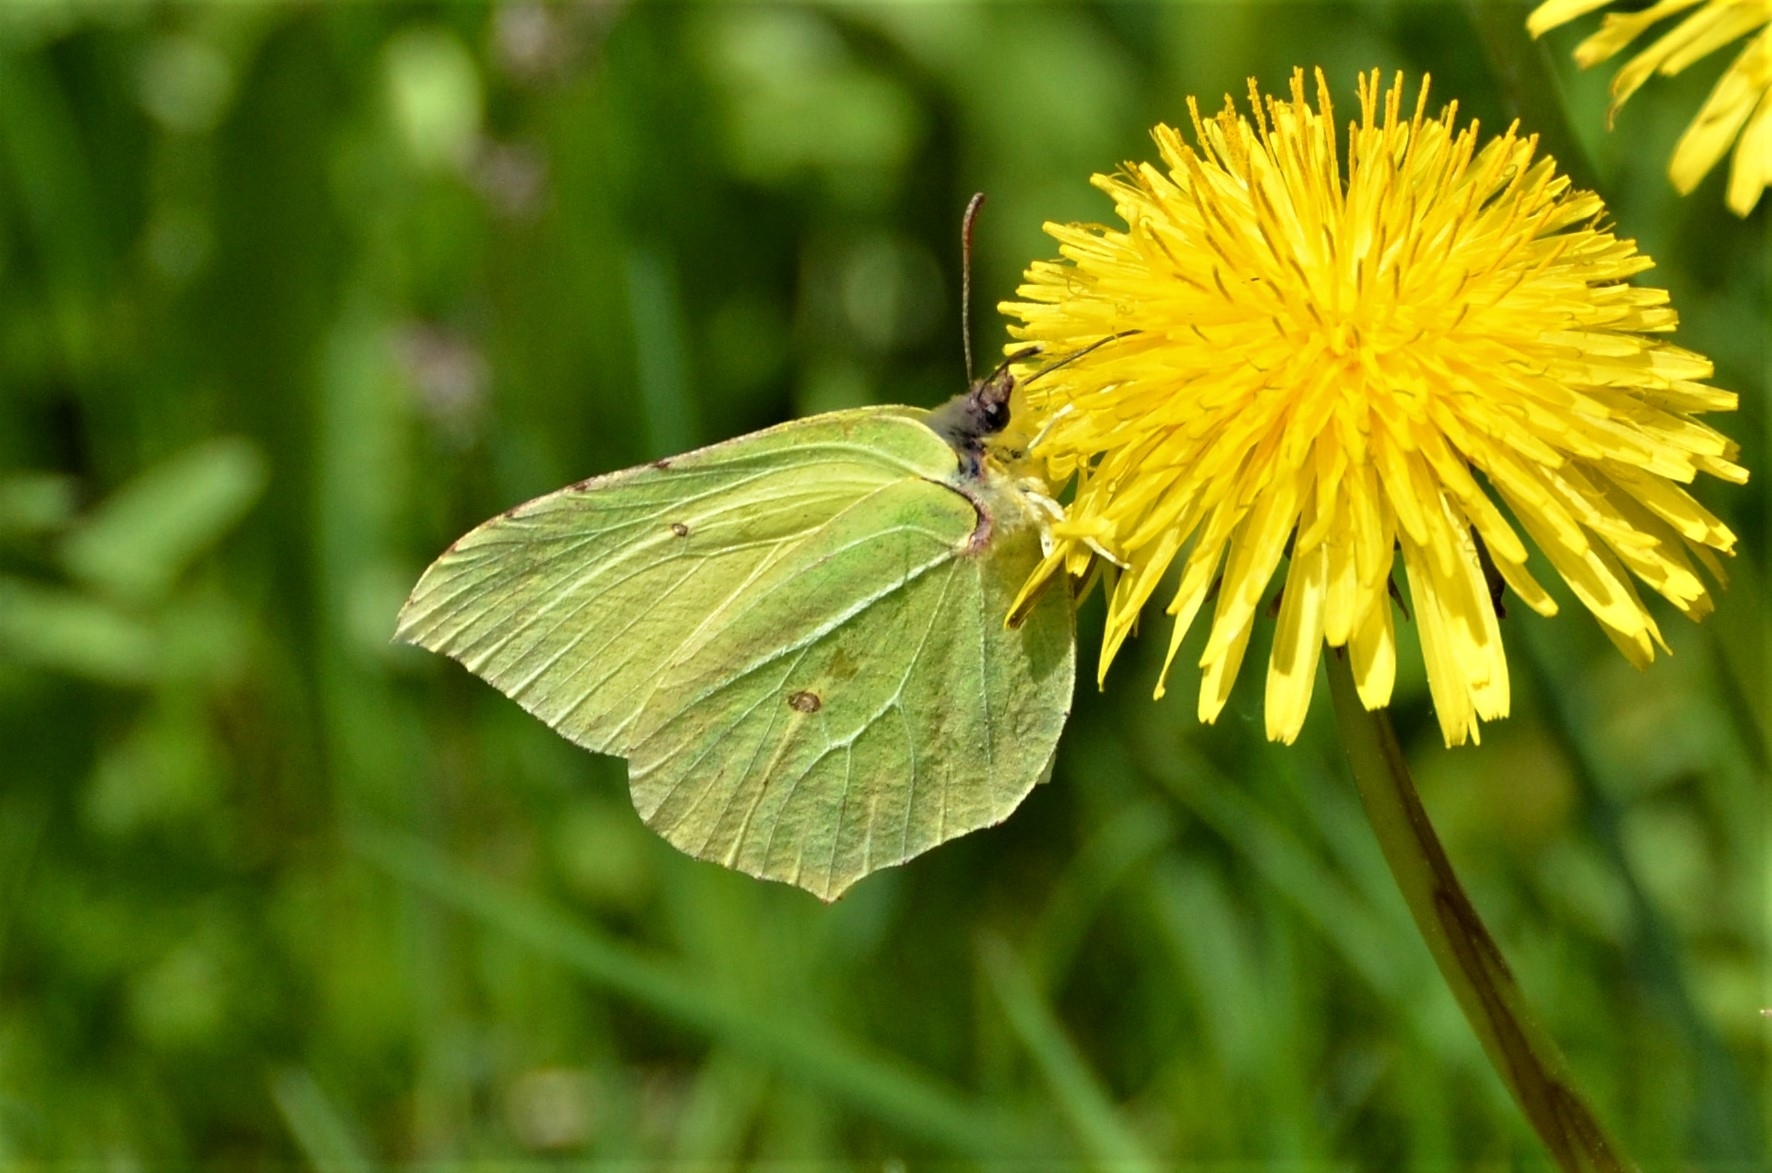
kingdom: Animalia
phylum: Arthropoda
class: Insecta
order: Lepidoptera
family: Pieridae
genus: Gonepteryx
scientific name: Gonepteryx rhamni
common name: Brimstone
